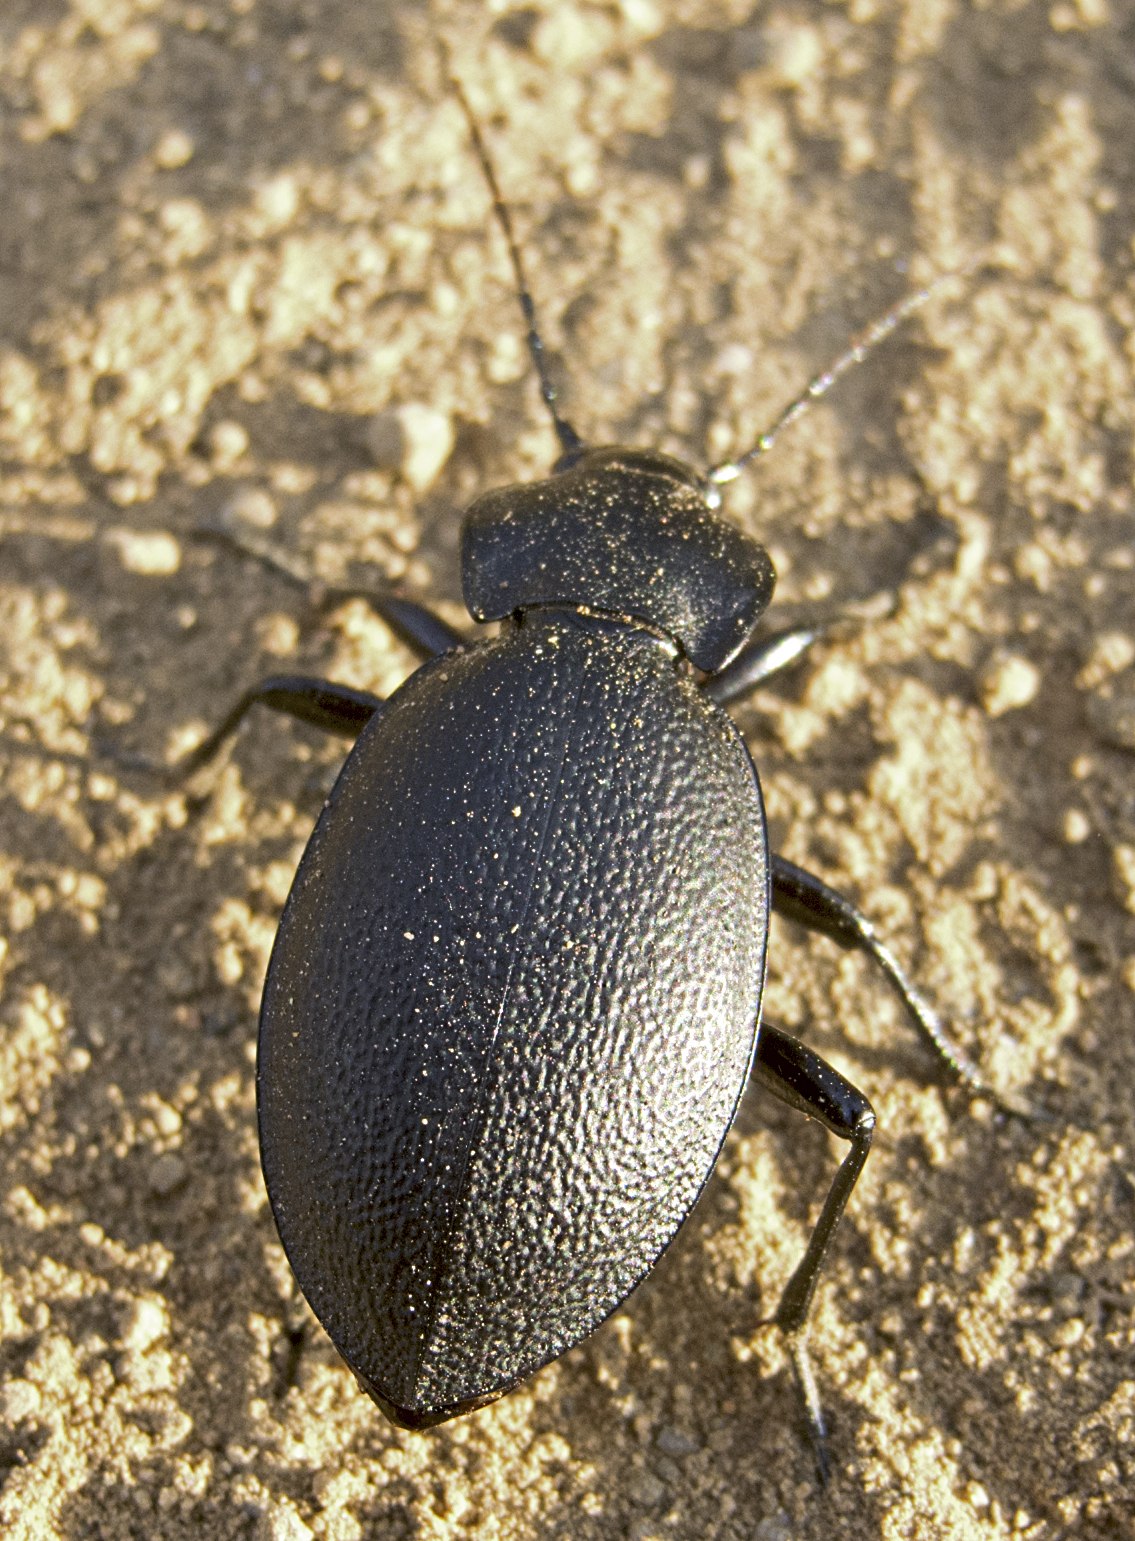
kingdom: Animalia
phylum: Arthropoda
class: Insecta
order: Coleoptera
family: Carabidae
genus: Carabus
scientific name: Carabus coriaceus
